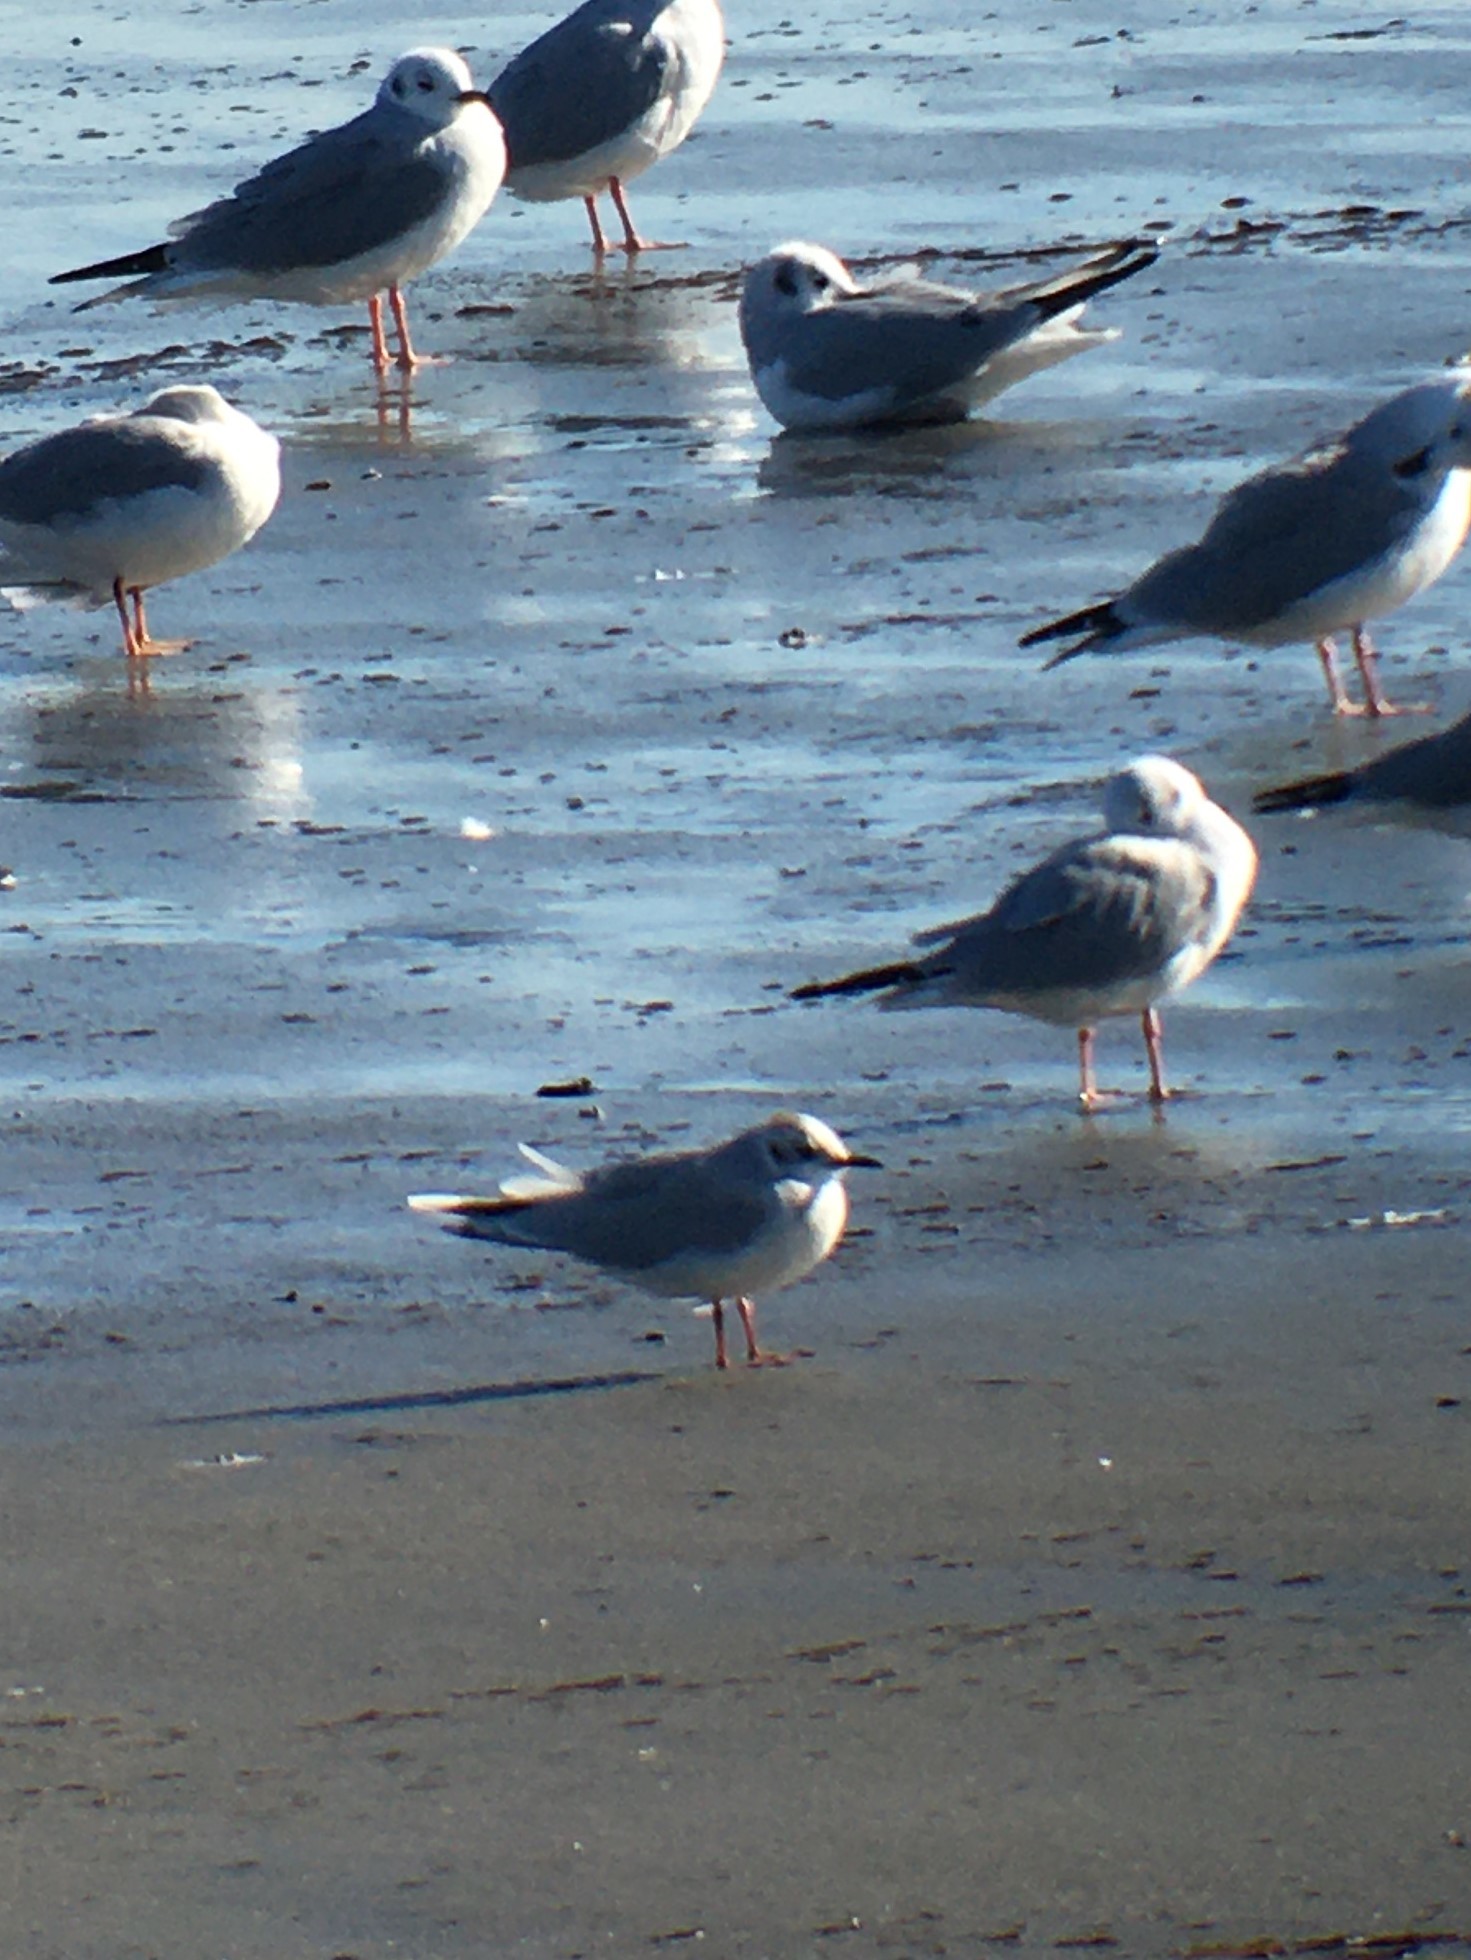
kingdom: Animalia
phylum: Chordata
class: Aves
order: Charadriiformes
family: Laridae
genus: Hydrocoloeus
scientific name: Hydrocoloeus minutus
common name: Little gull
